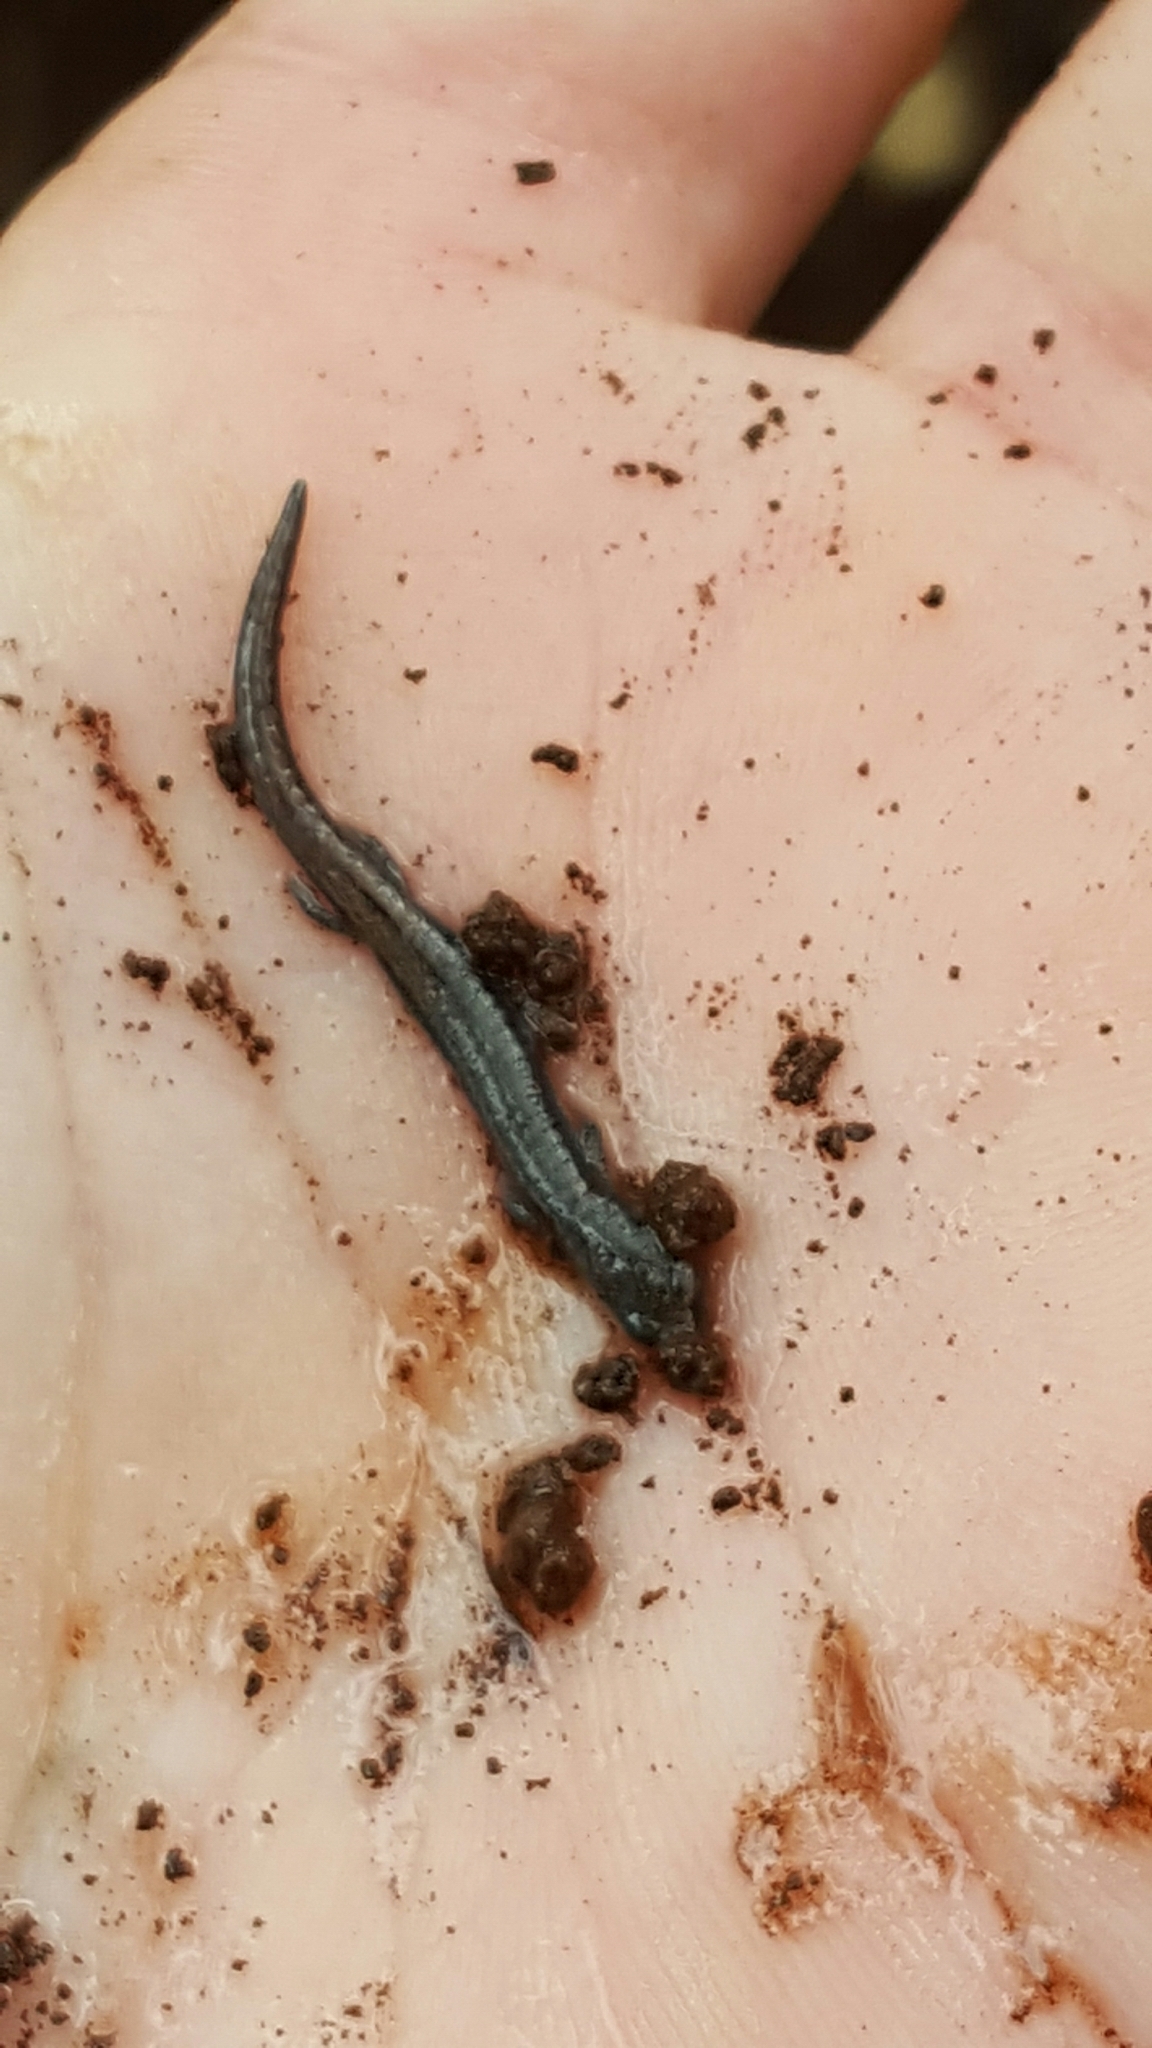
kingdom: Animalia
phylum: Chordata
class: Amphibia
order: Caudata
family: Plethodontidae
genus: Batrachoseps
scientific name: Batrachoseps attenuatus
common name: California slender salamander
